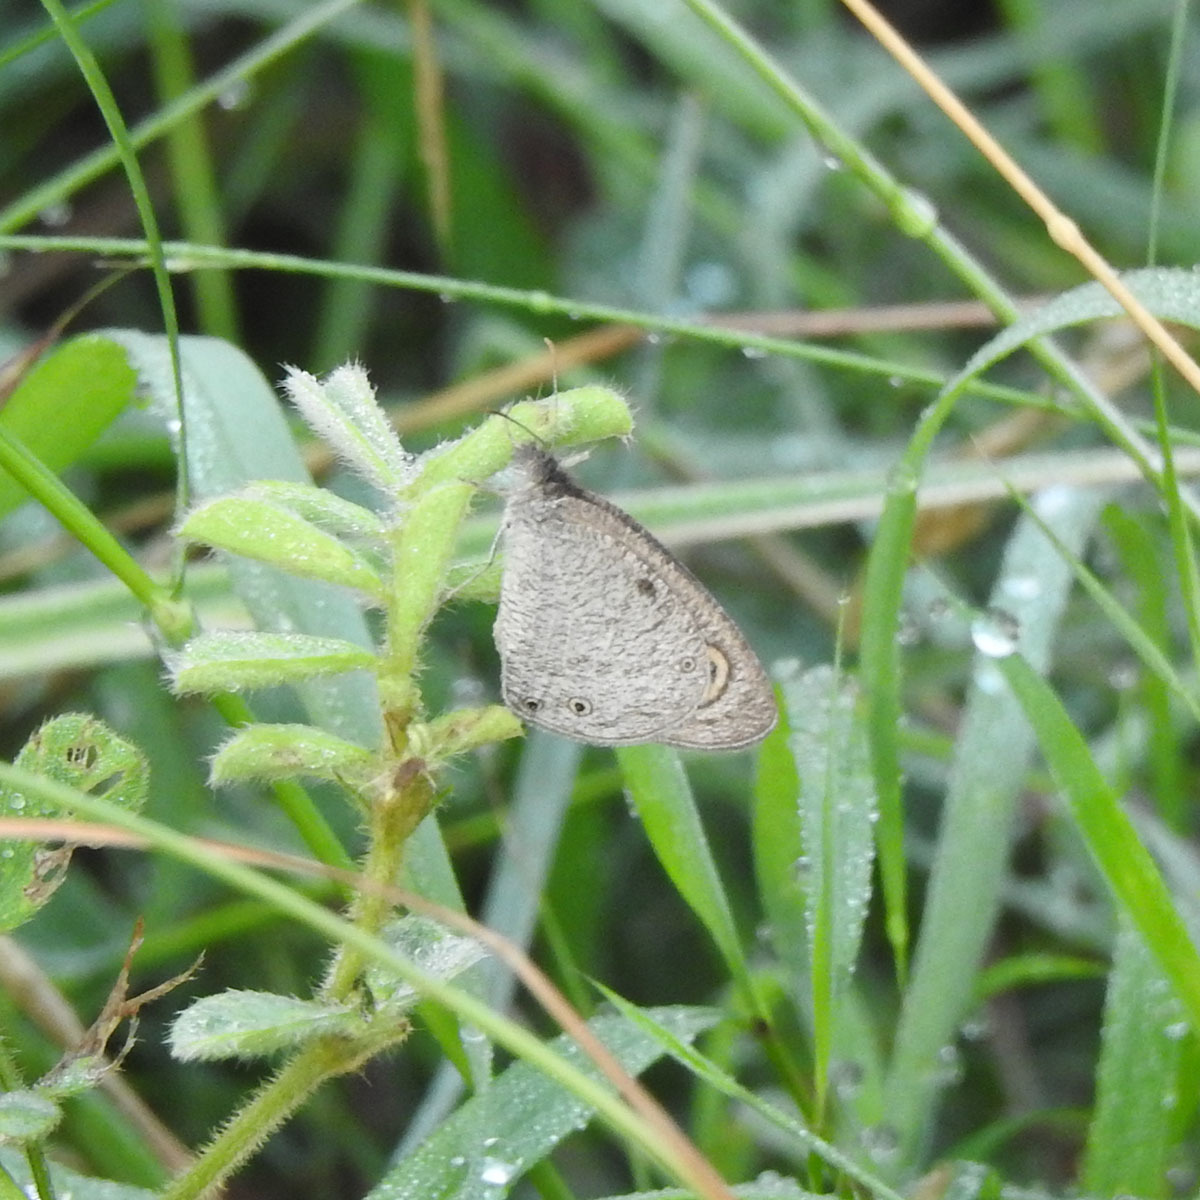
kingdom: Animalia
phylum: Arthropoda
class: Insecta
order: Lepidoptera
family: Nymphalidae
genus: Ypthima
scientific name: Ypthima asterope
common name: African ringlet
